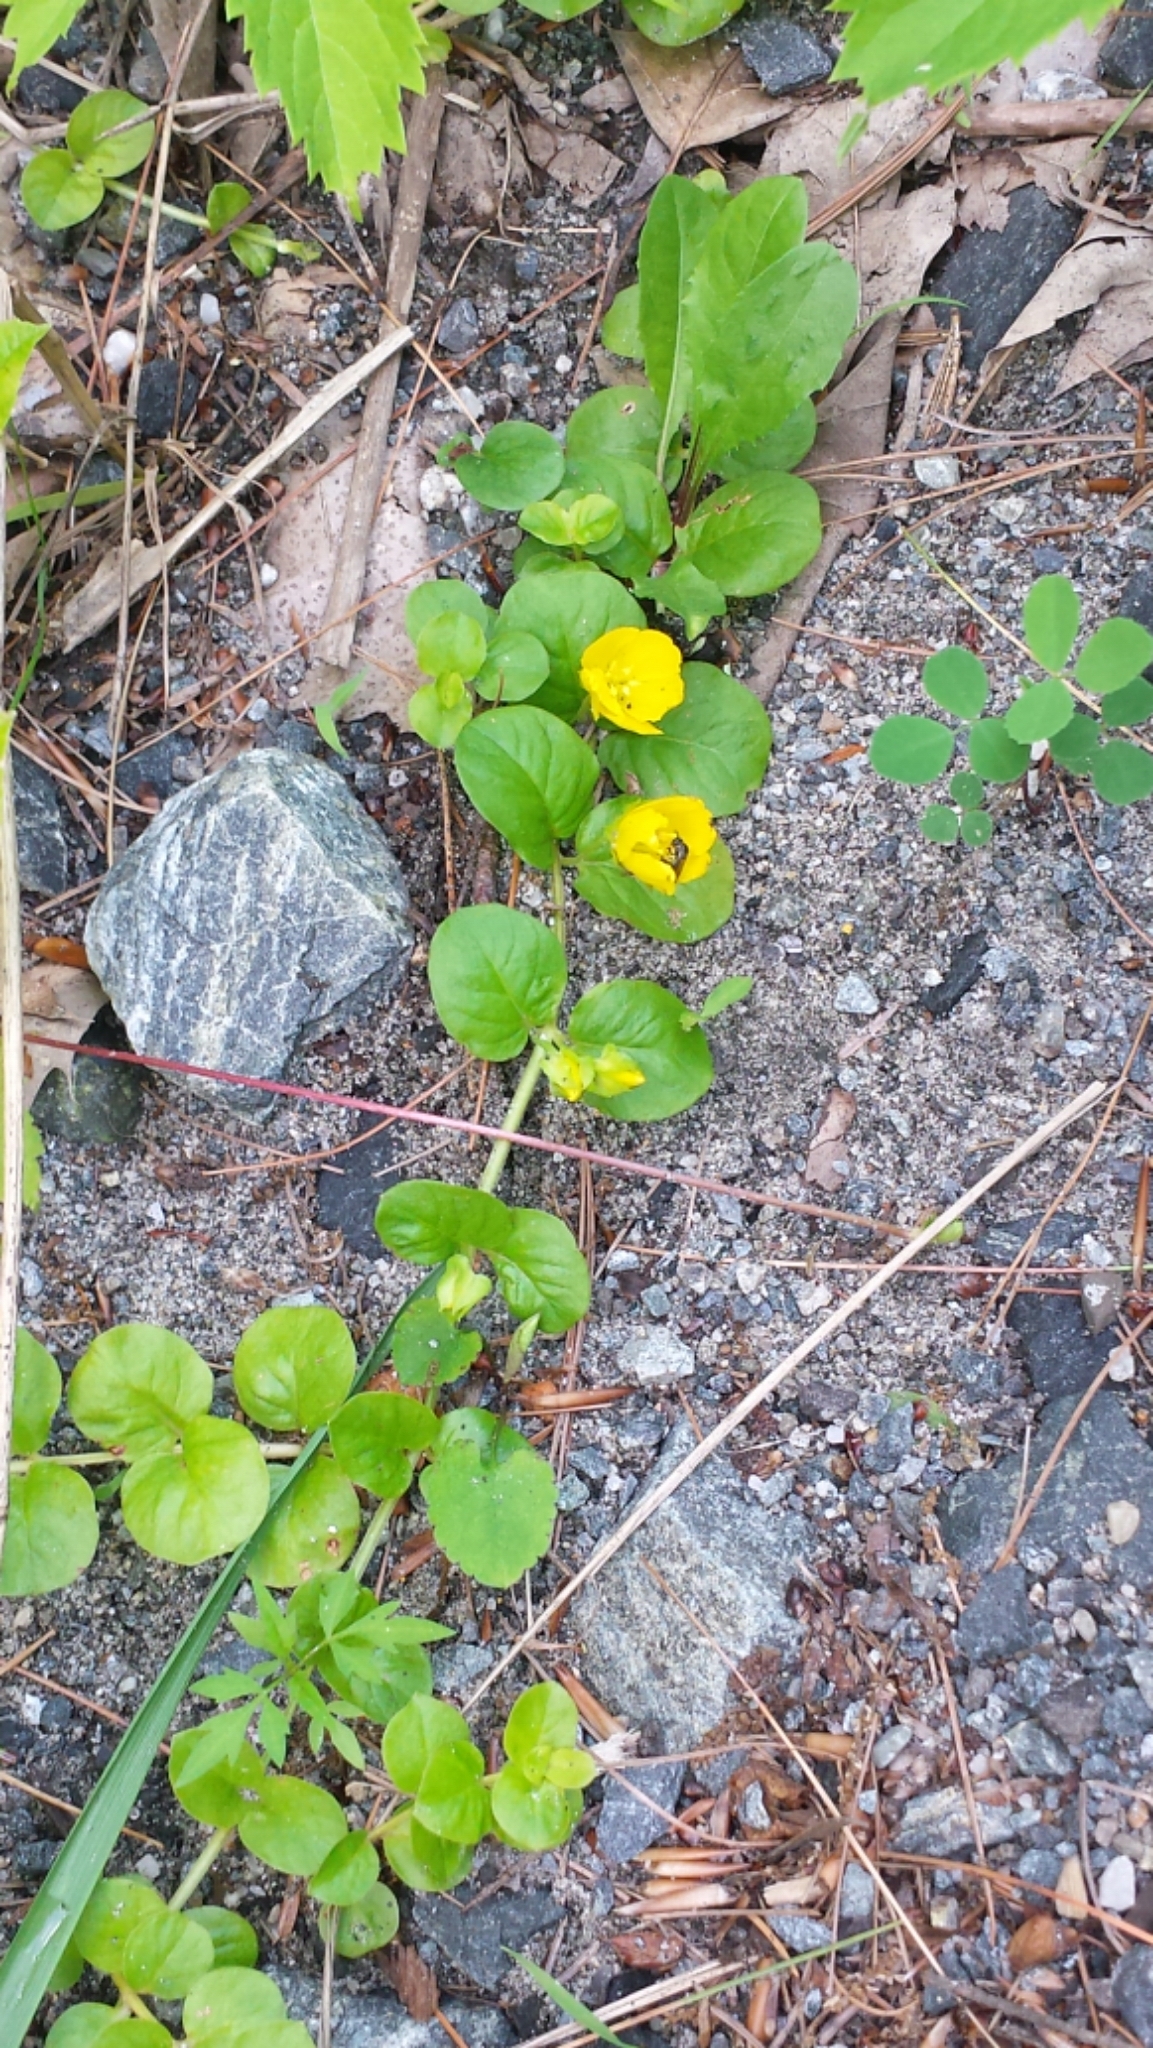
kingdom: Plantae
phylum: Tracheophyta
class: Magnoliopsida
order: Ericales
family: Primulaceae
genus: Lysimachia
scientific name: Lysimachia nummularia
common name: Moneywort
